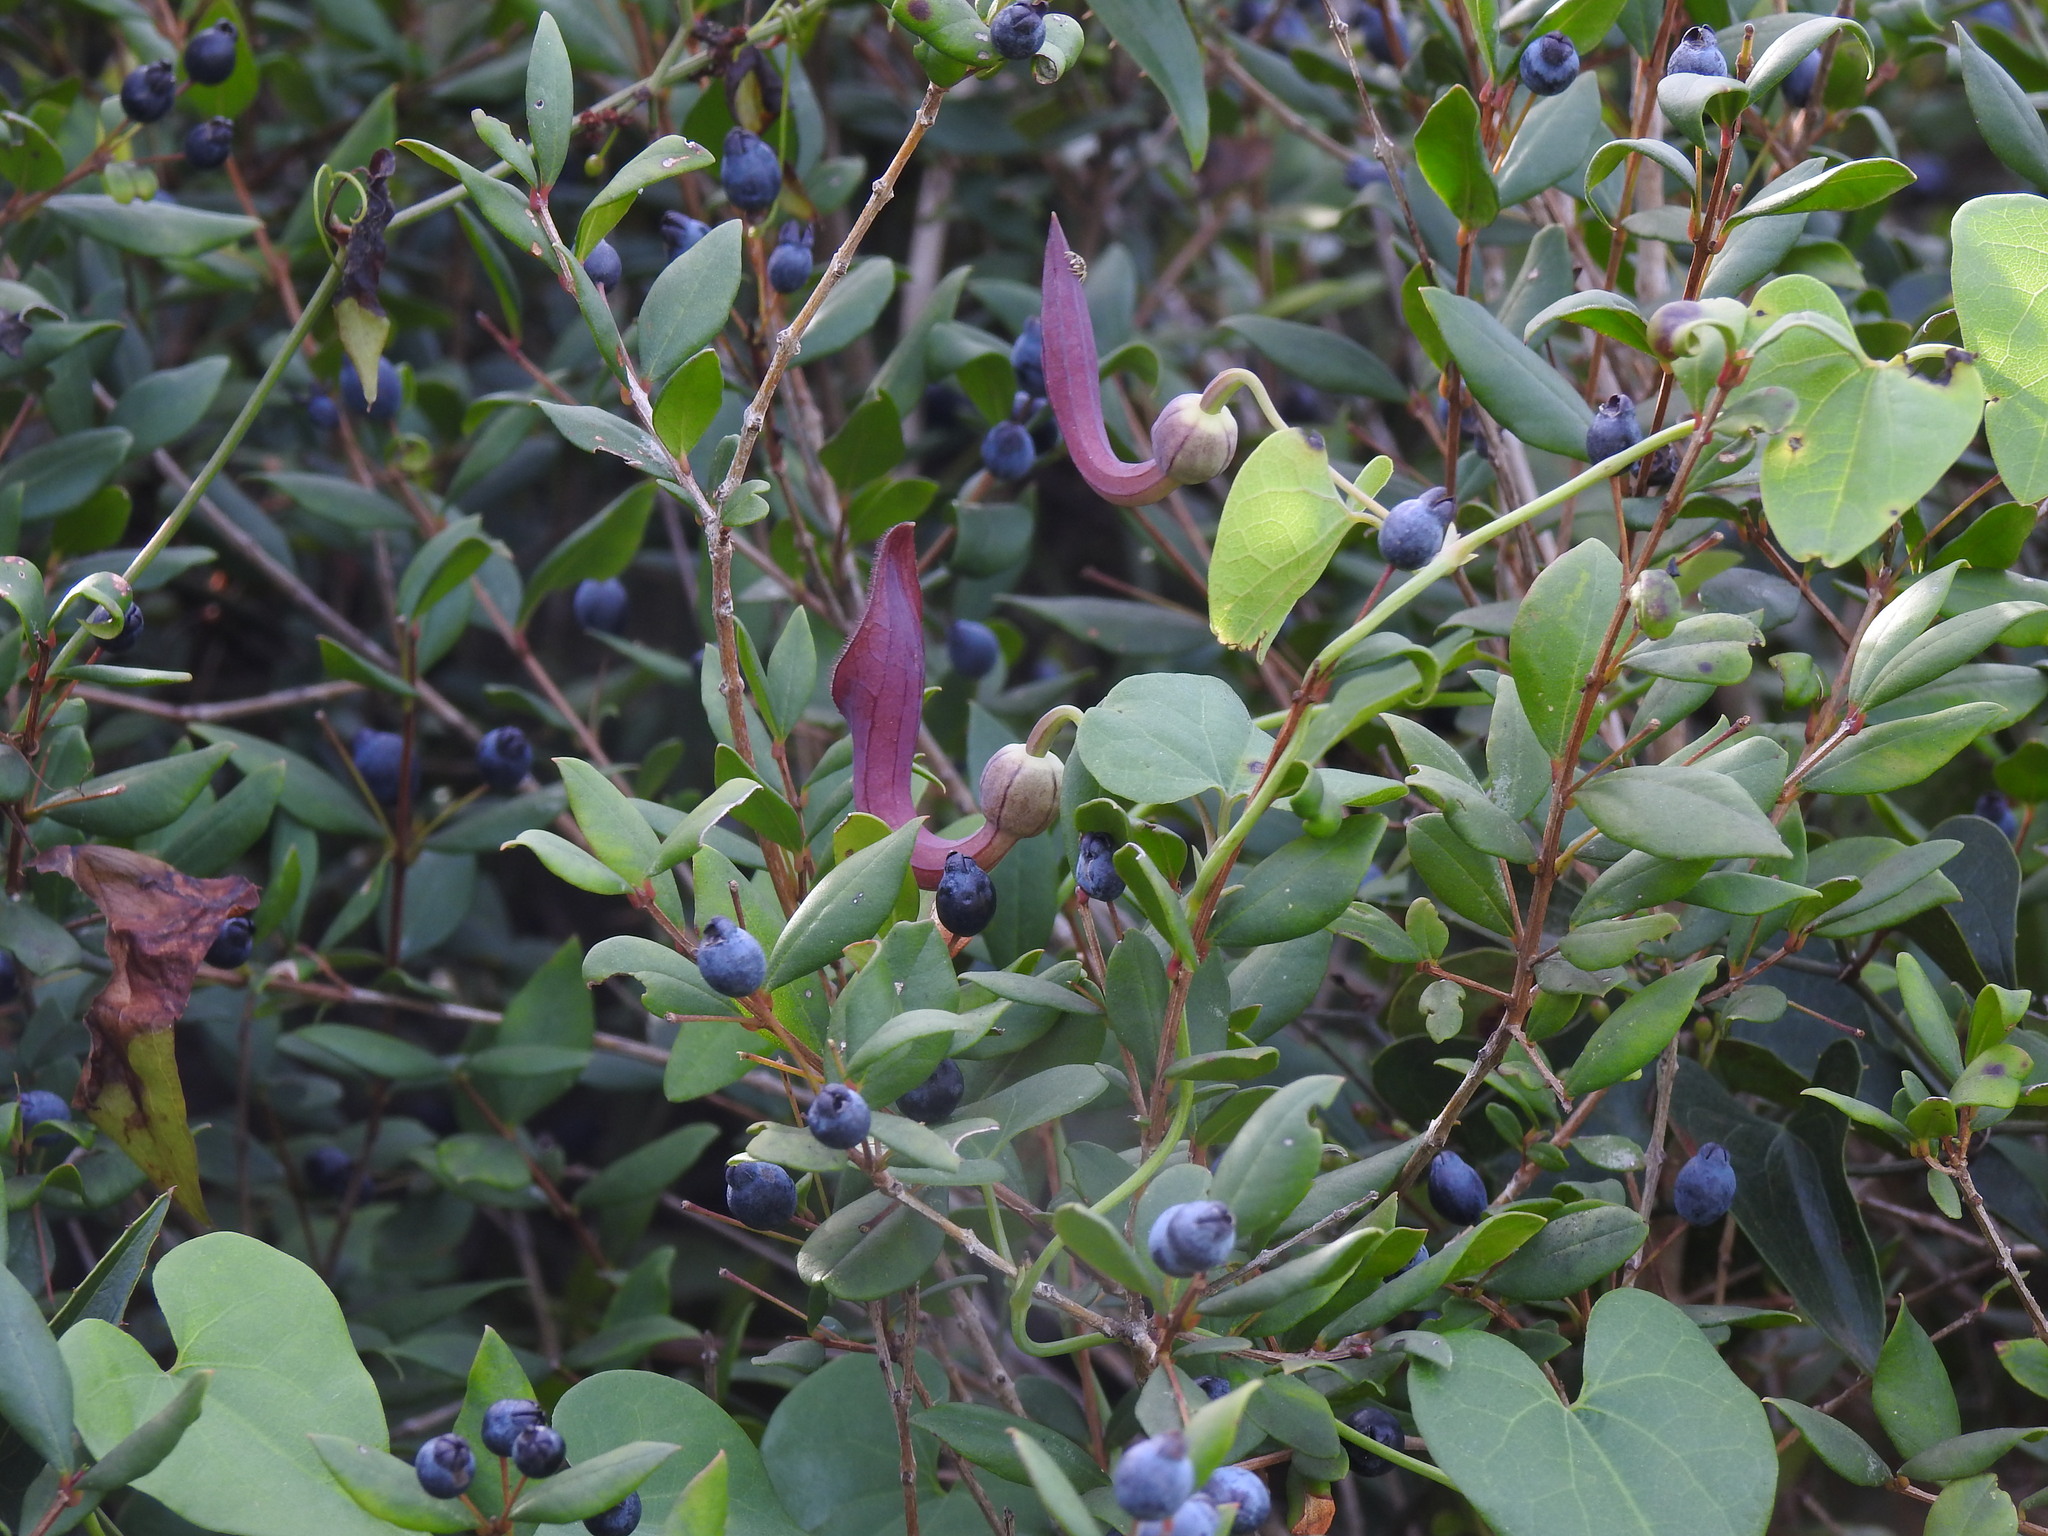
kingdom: Plantae
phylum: Tracheophyta
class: Magnoliopsida
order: Piperales
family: Aristolochiaceae
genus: Aristolochia
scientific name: Aristolochia baetica
